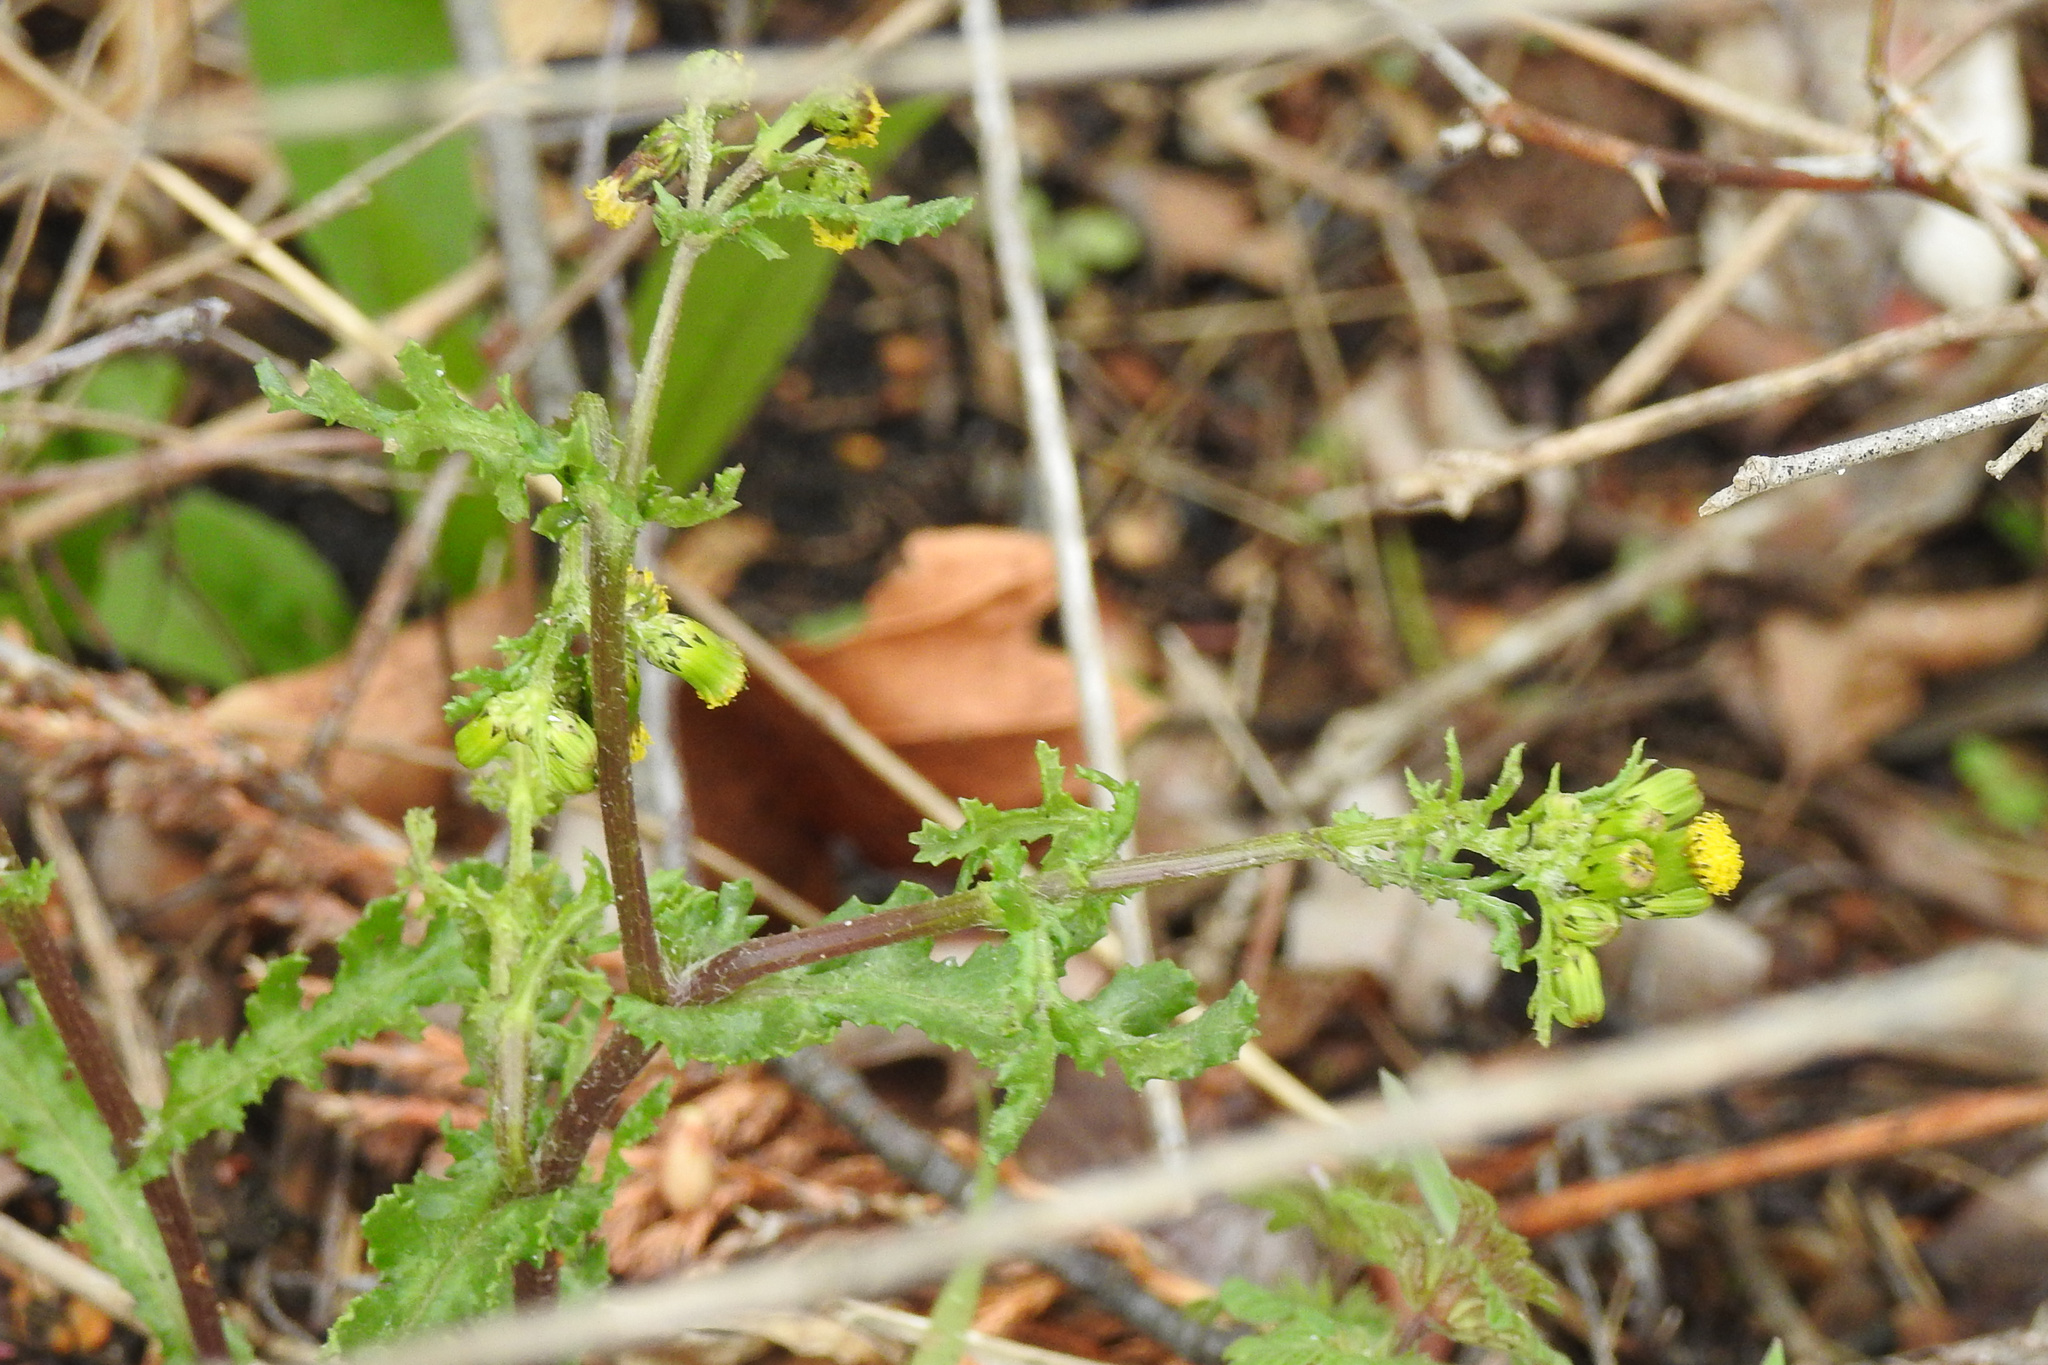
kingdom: Plantae
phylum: Tracheophyta
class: Magnoliopsida
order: Asterales
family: Asteraceae
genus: Senecio
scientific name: Senecio vulgaris
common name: Old-man-in-the-spring
